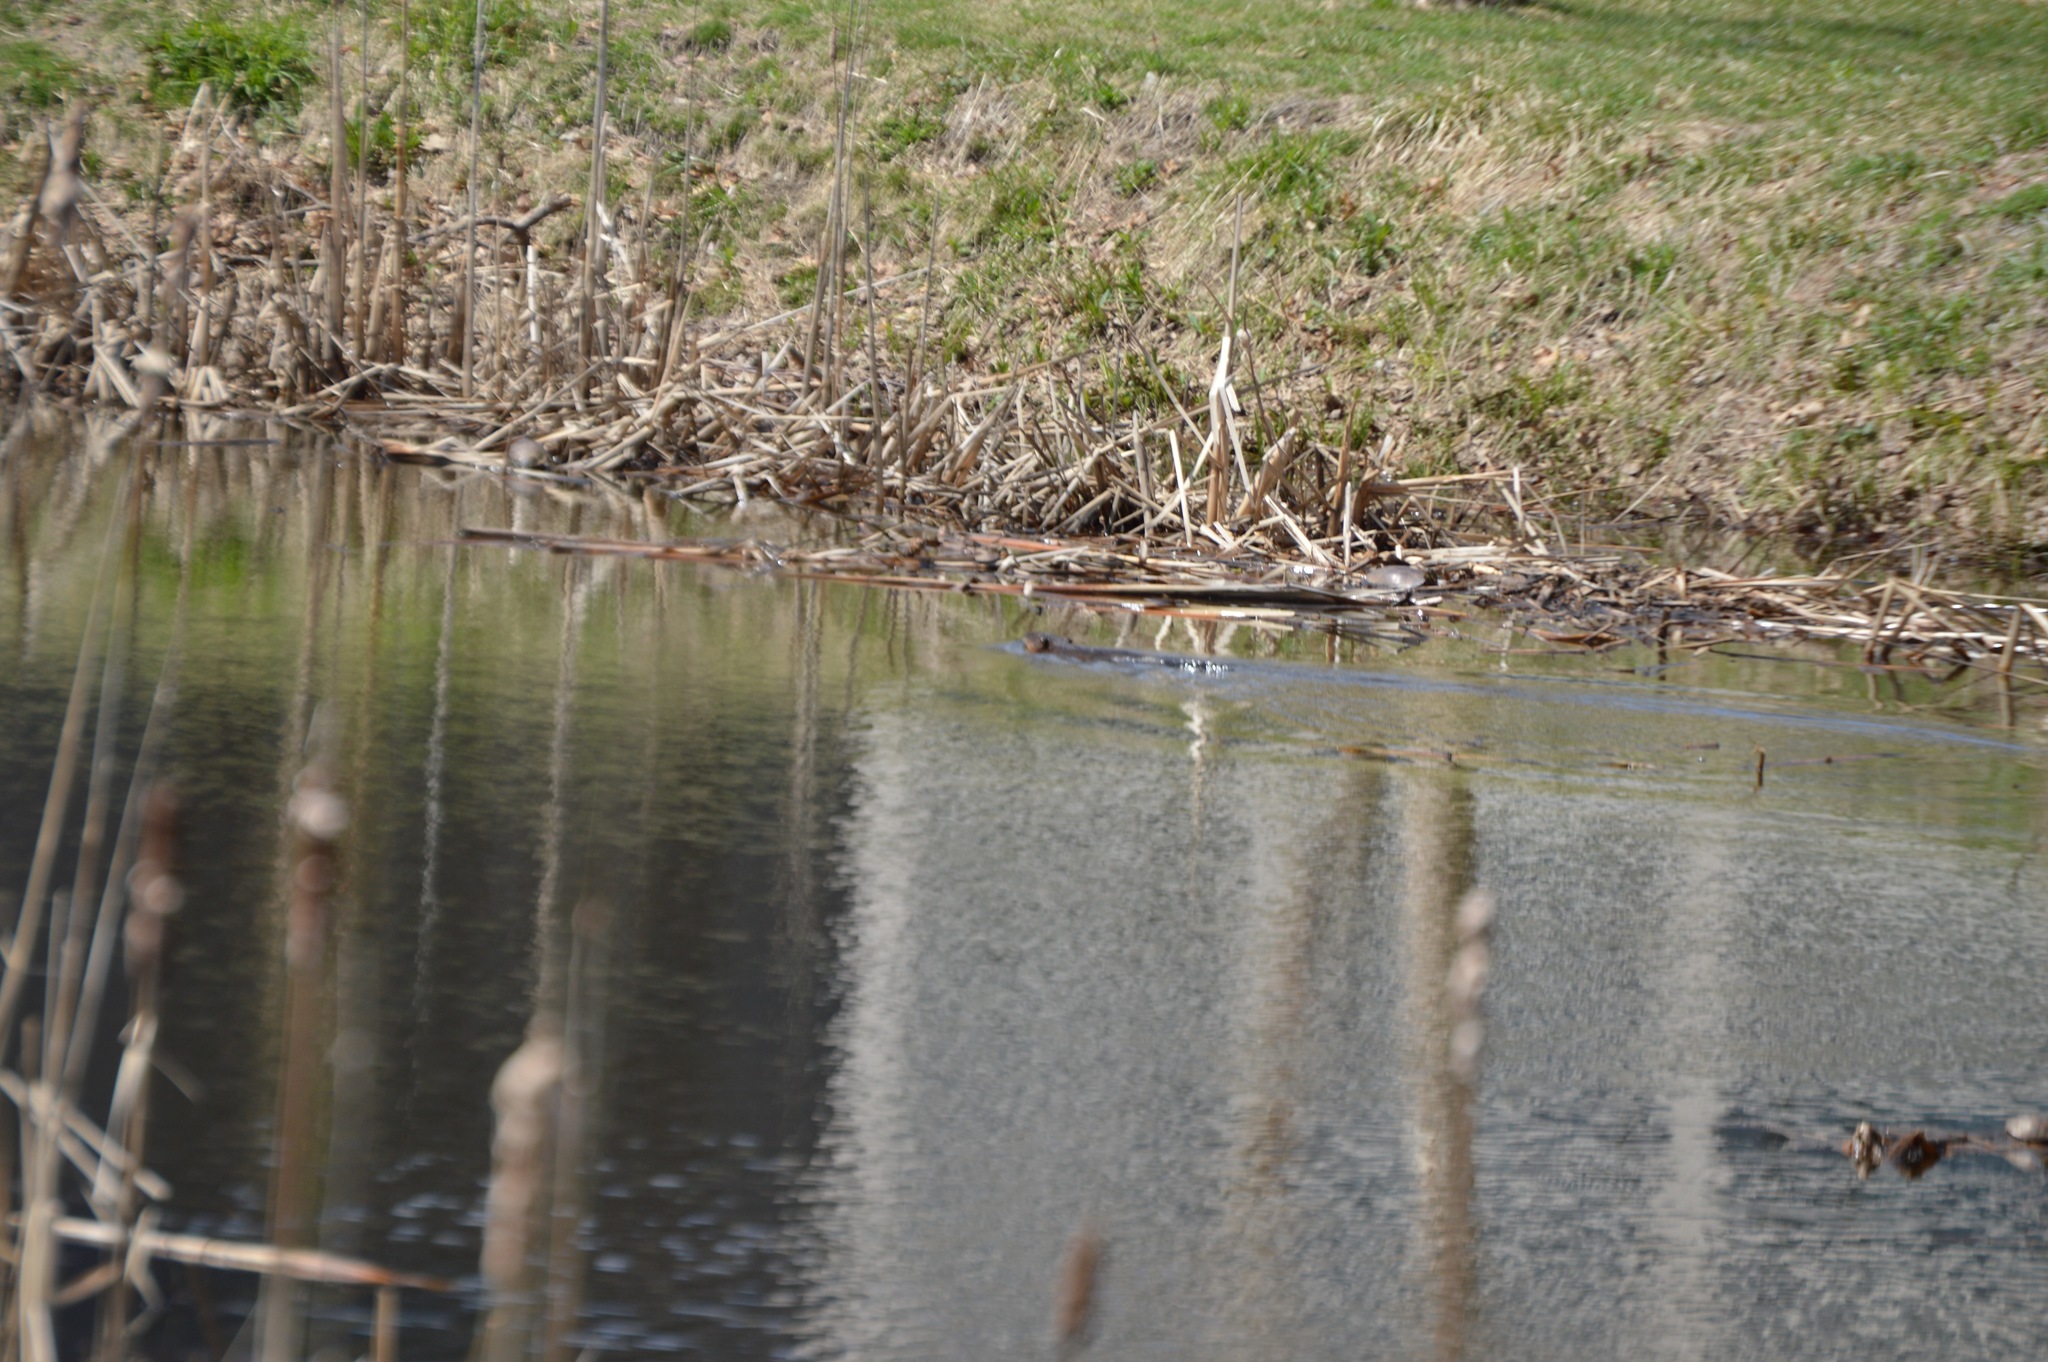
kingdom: Animalia
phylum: Chordata
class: Mammalia
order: Rodentia
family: Cricetidae
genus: Ondatra
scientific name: Ondatra zibethicus
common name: Muskrat
